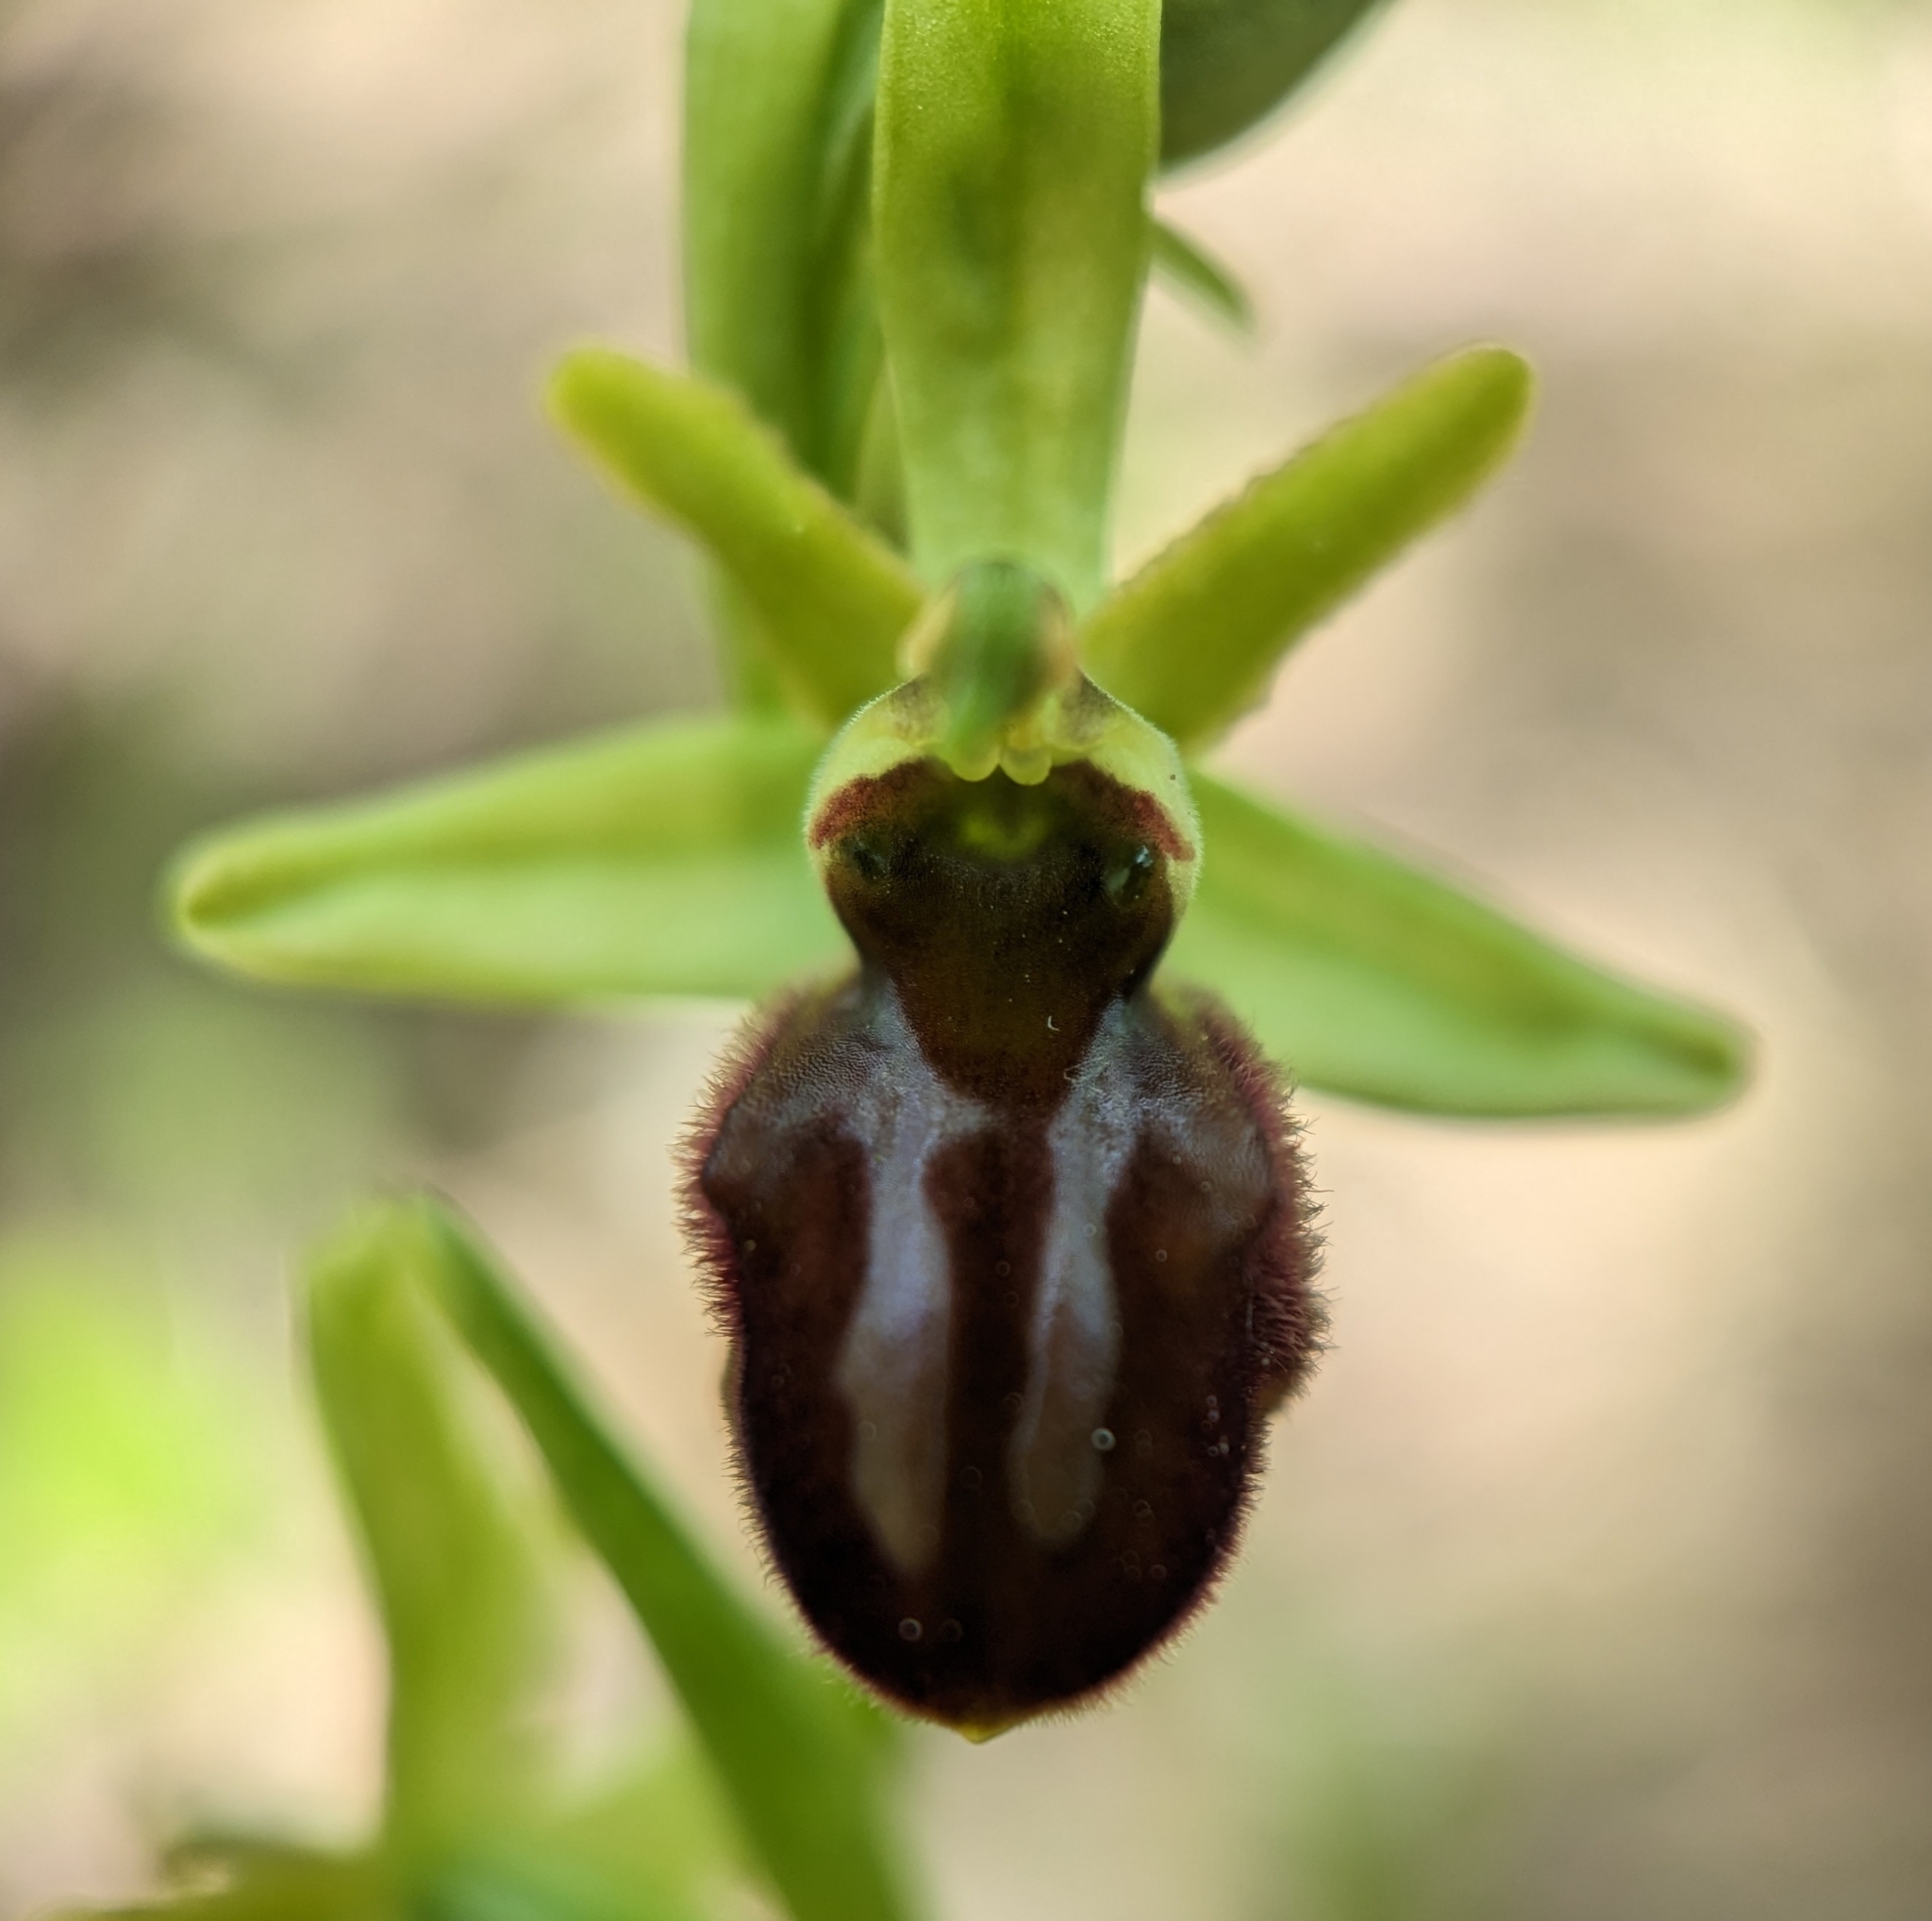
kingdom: Plantae
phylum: Tracheophyta
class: Liliopsida
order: Asparagales
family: Orchidaceae
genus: Ophrys
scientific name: Ophrys sphegodes
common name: Early spider-orchid
